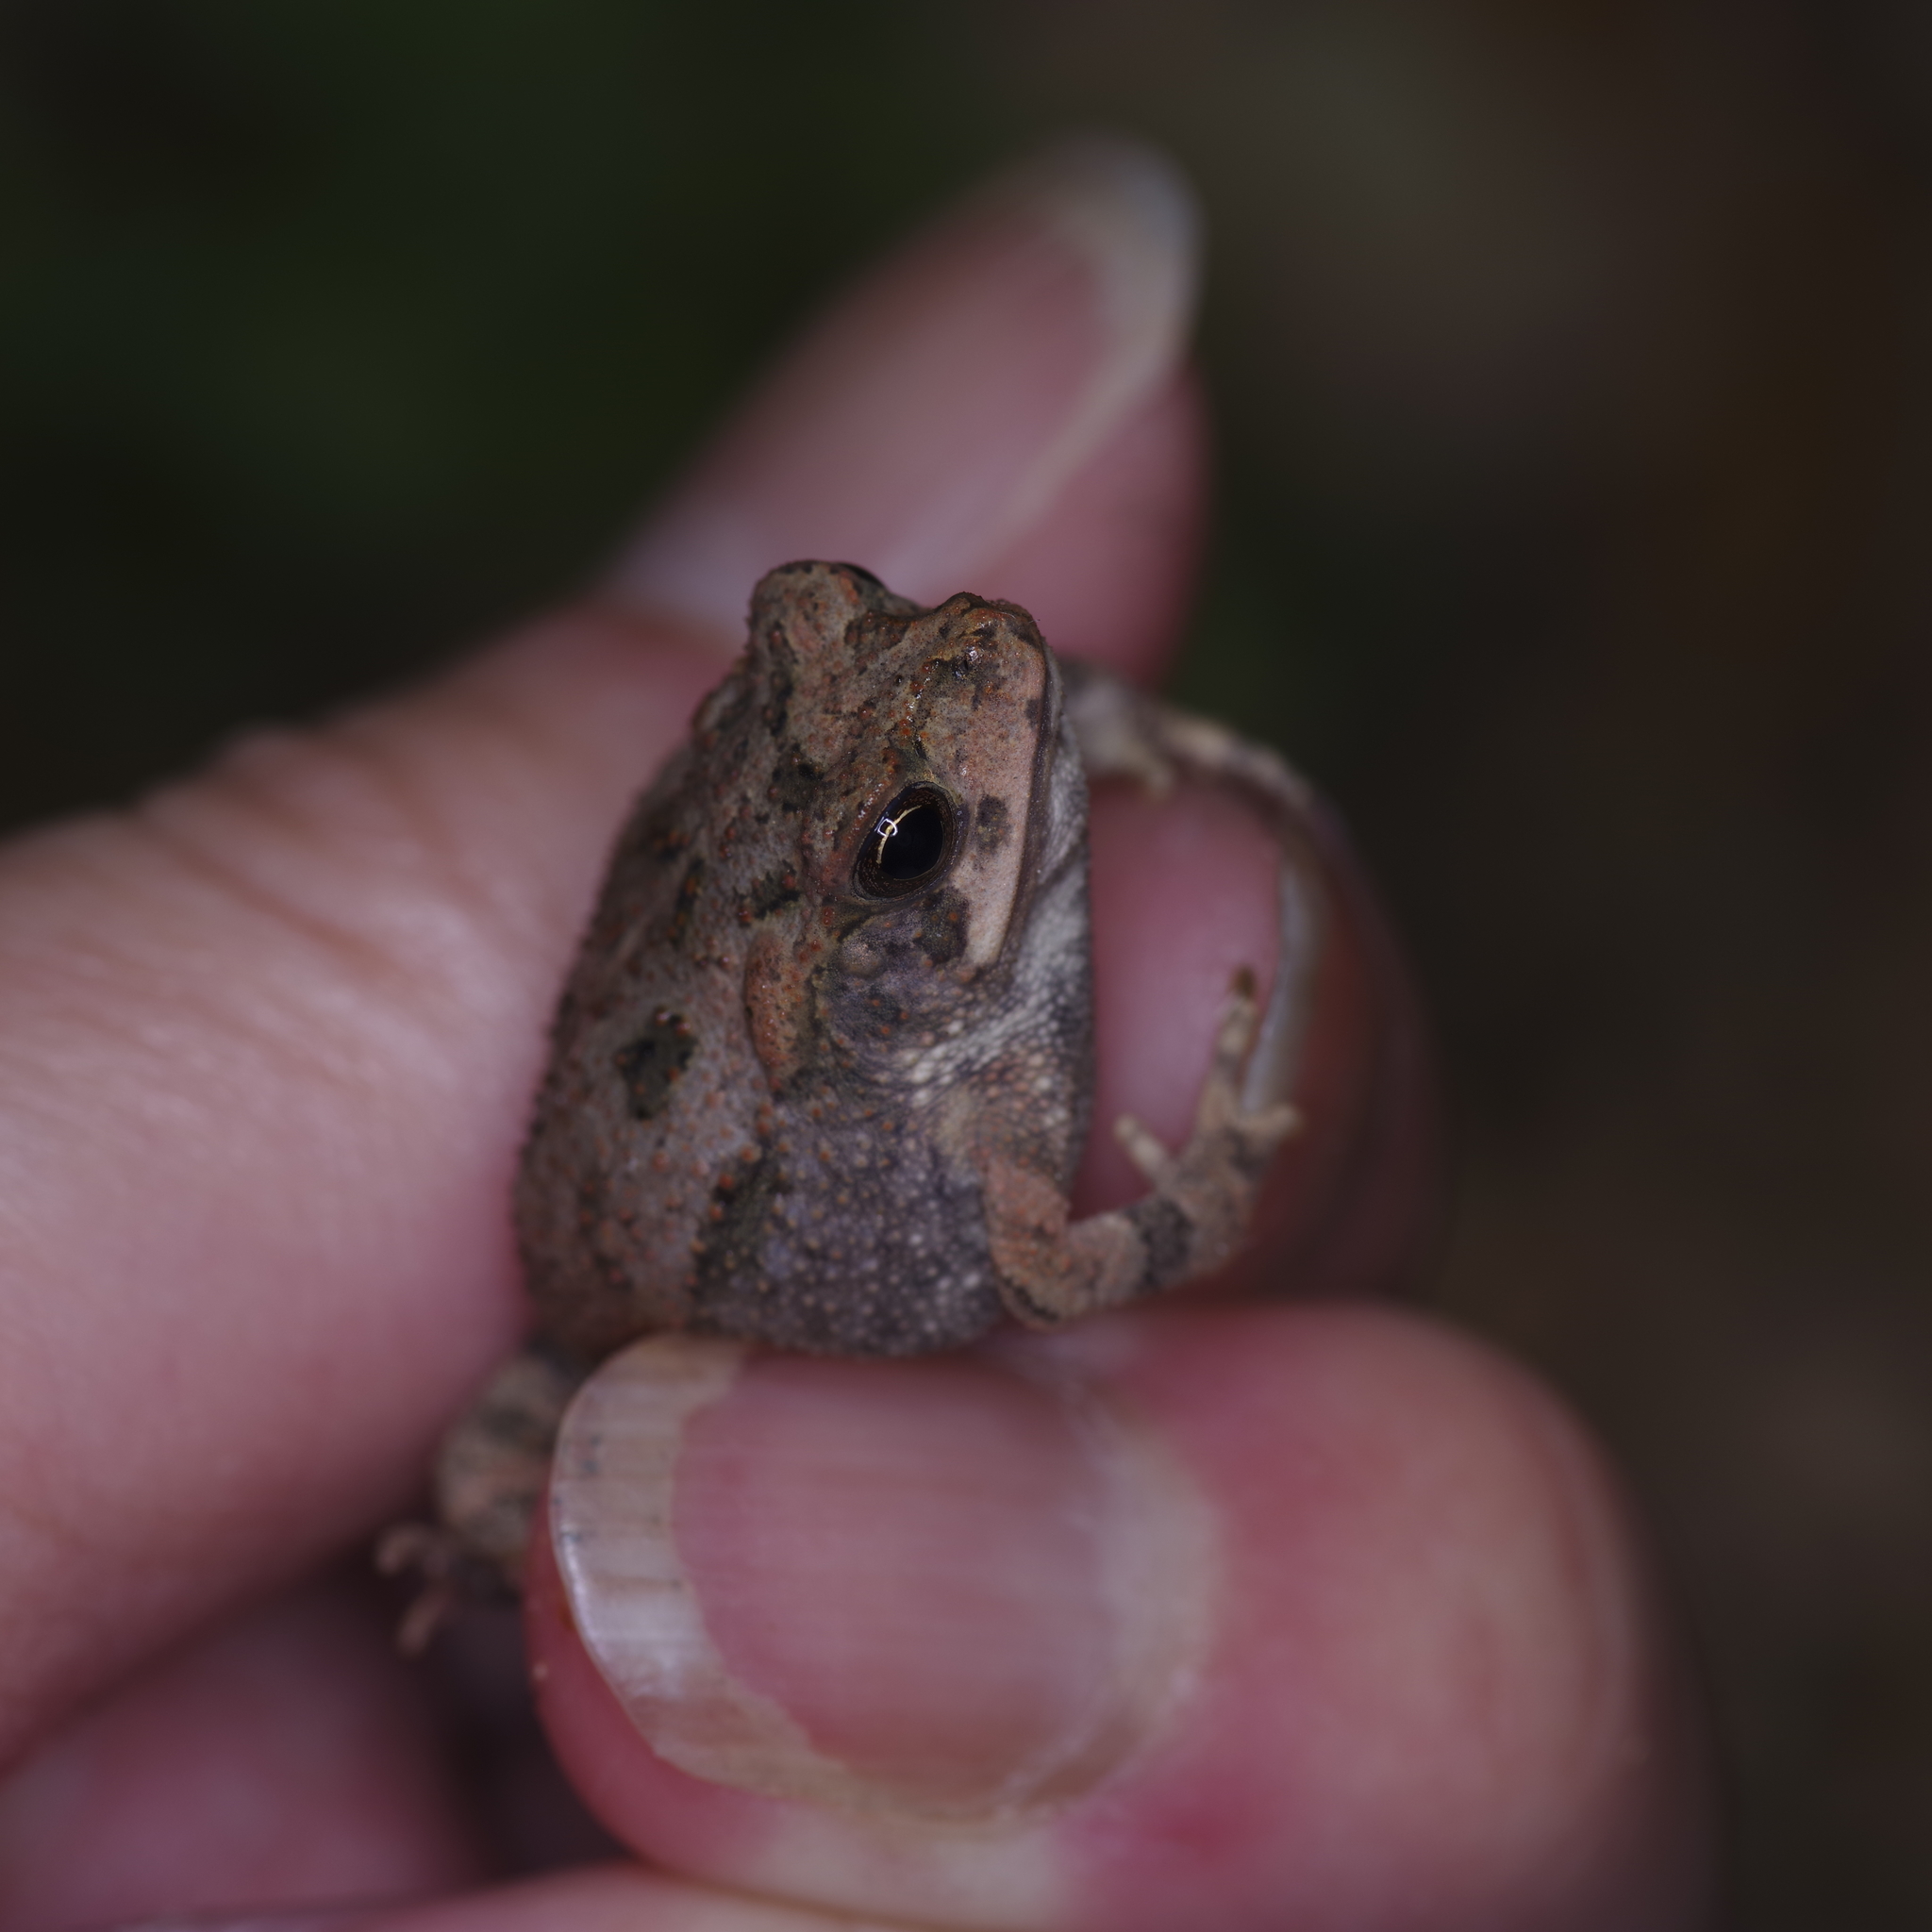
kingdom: Animalia
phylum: Chordata
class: Amphibia
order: Anura
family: Bufonidae
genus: Incilius
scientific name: Incilius nebulifer
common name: Gulf coast toad
